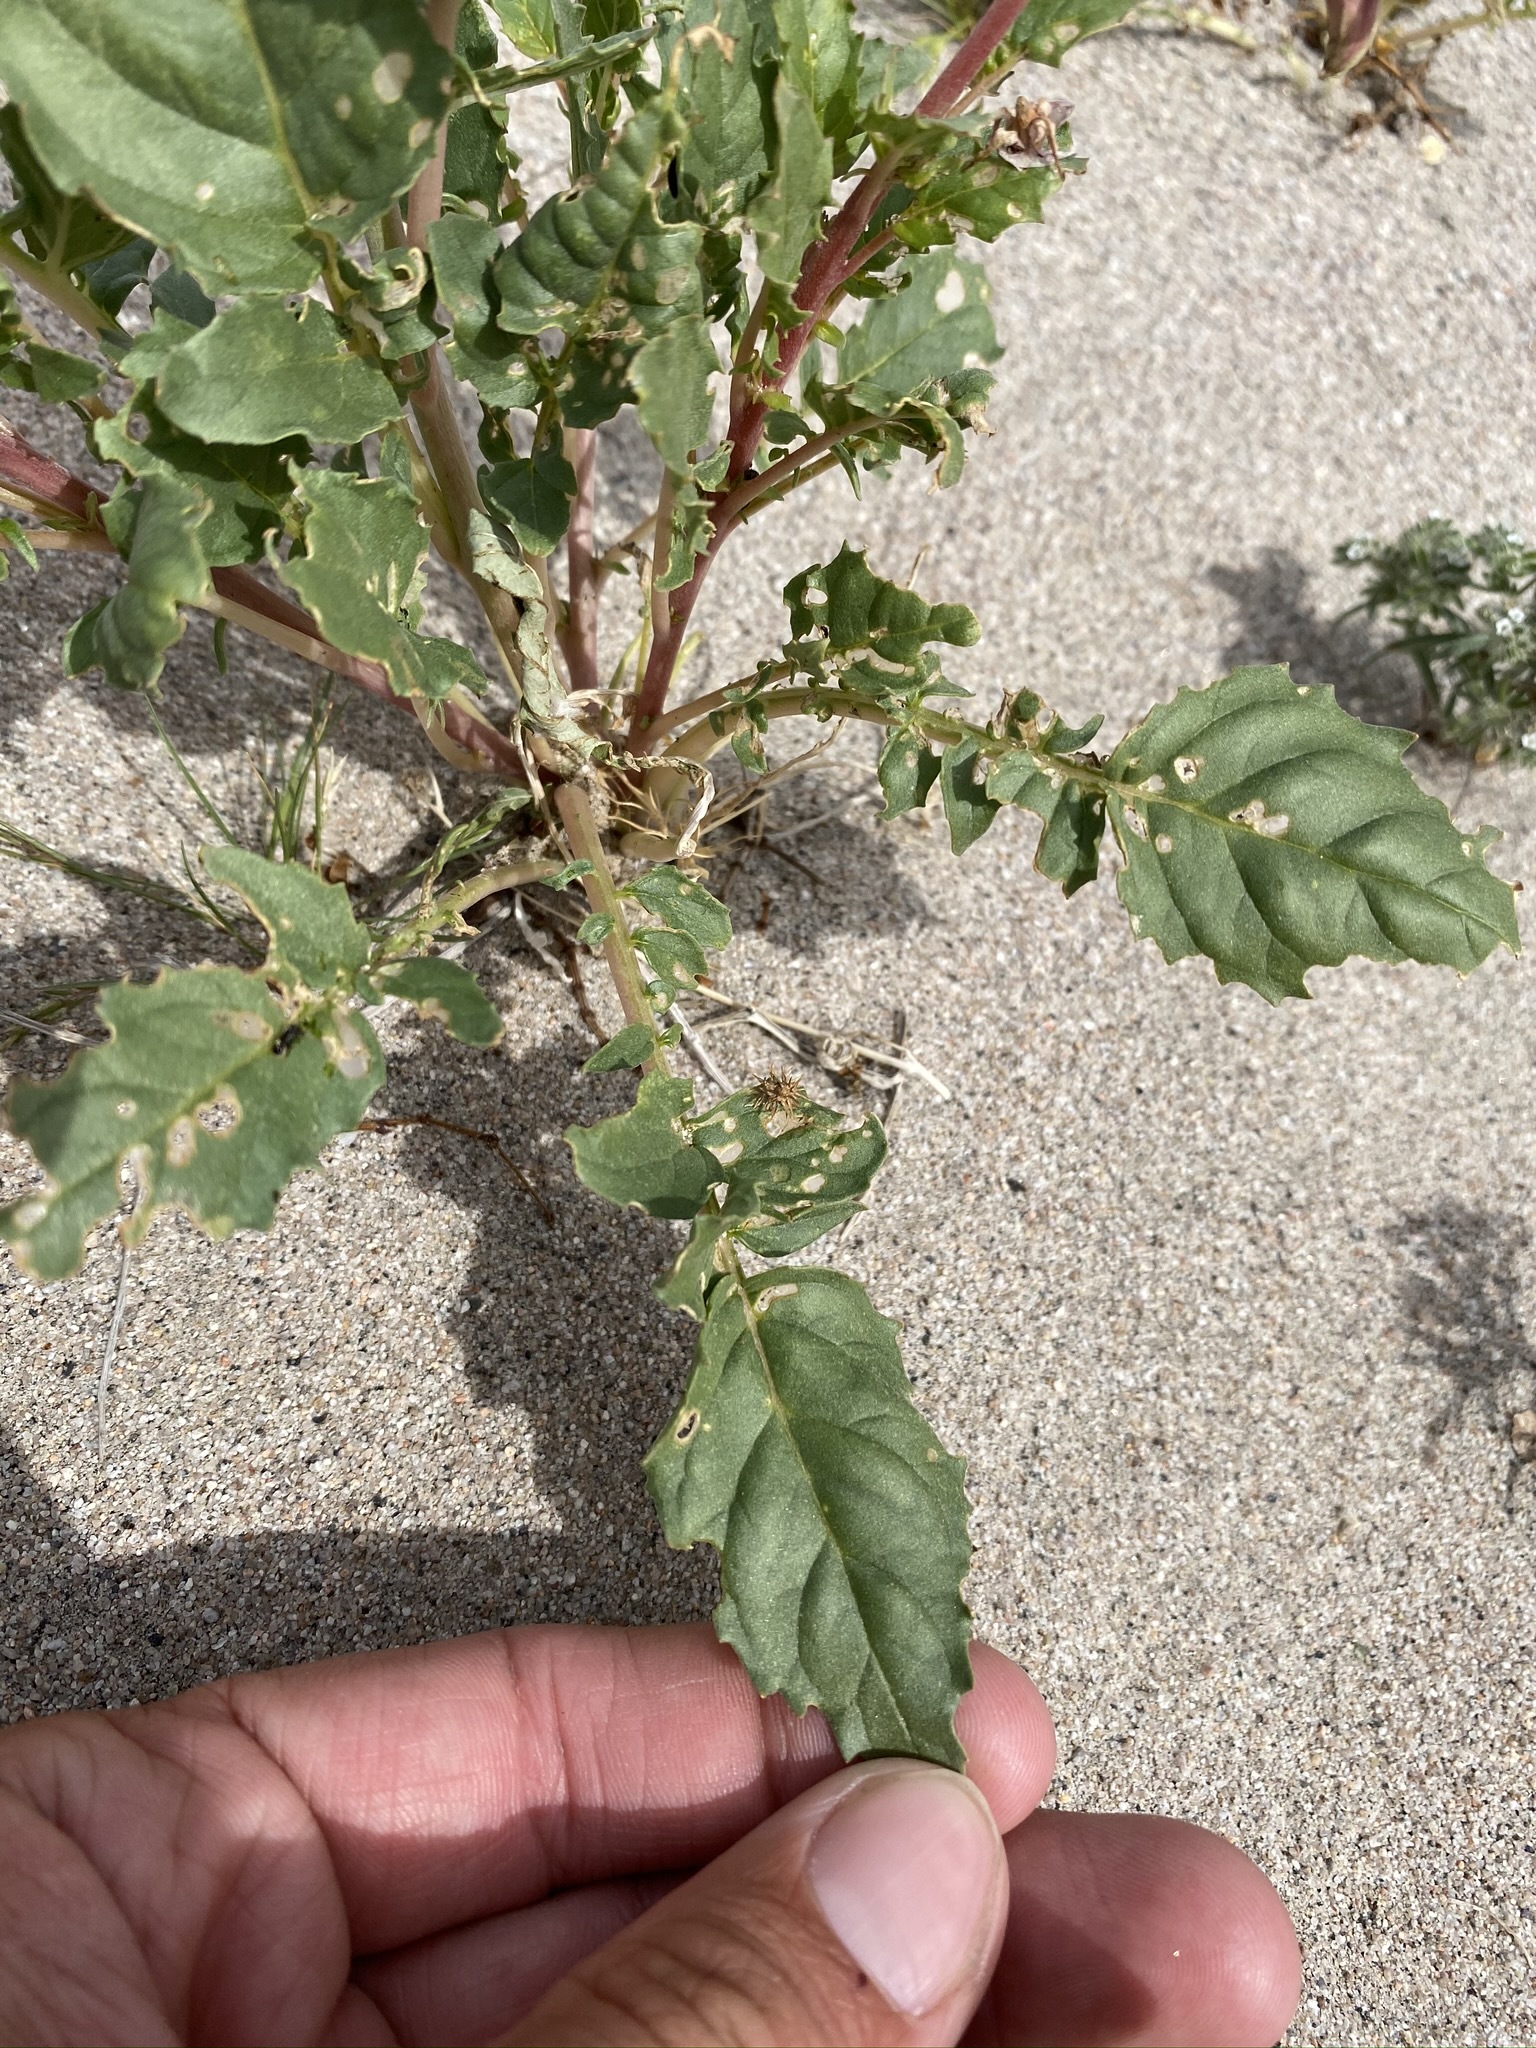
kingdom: Plantae
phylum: Tracheophyta
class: Magnoliopsida
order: Myrtales
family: Onagraceae
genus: Chylismia
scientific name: Chylismia claviformis
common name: Browneyes
